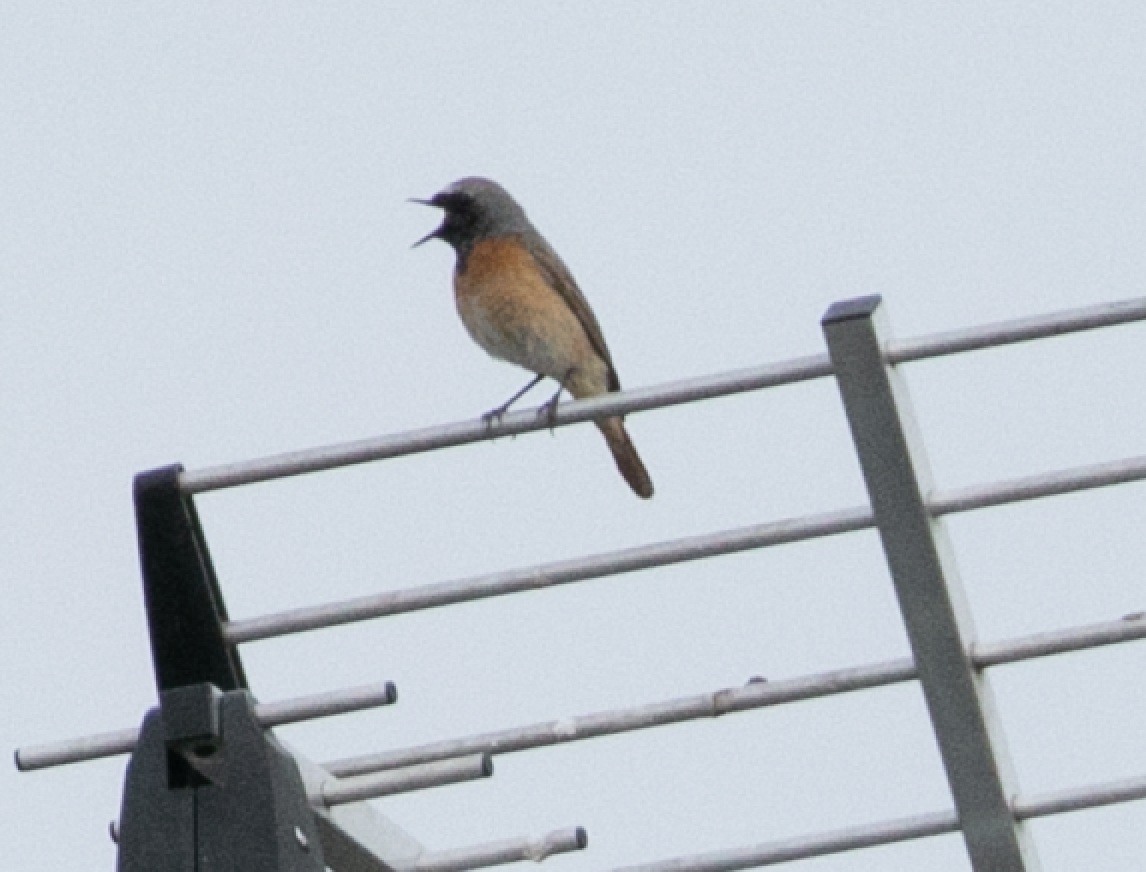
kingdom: Animalia
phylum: Chordata
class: Aves
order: Passeriformes
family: Muscicapidae
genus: Phoenicurus
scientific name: Phoenicurus phoenicurus
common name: Common redstart
